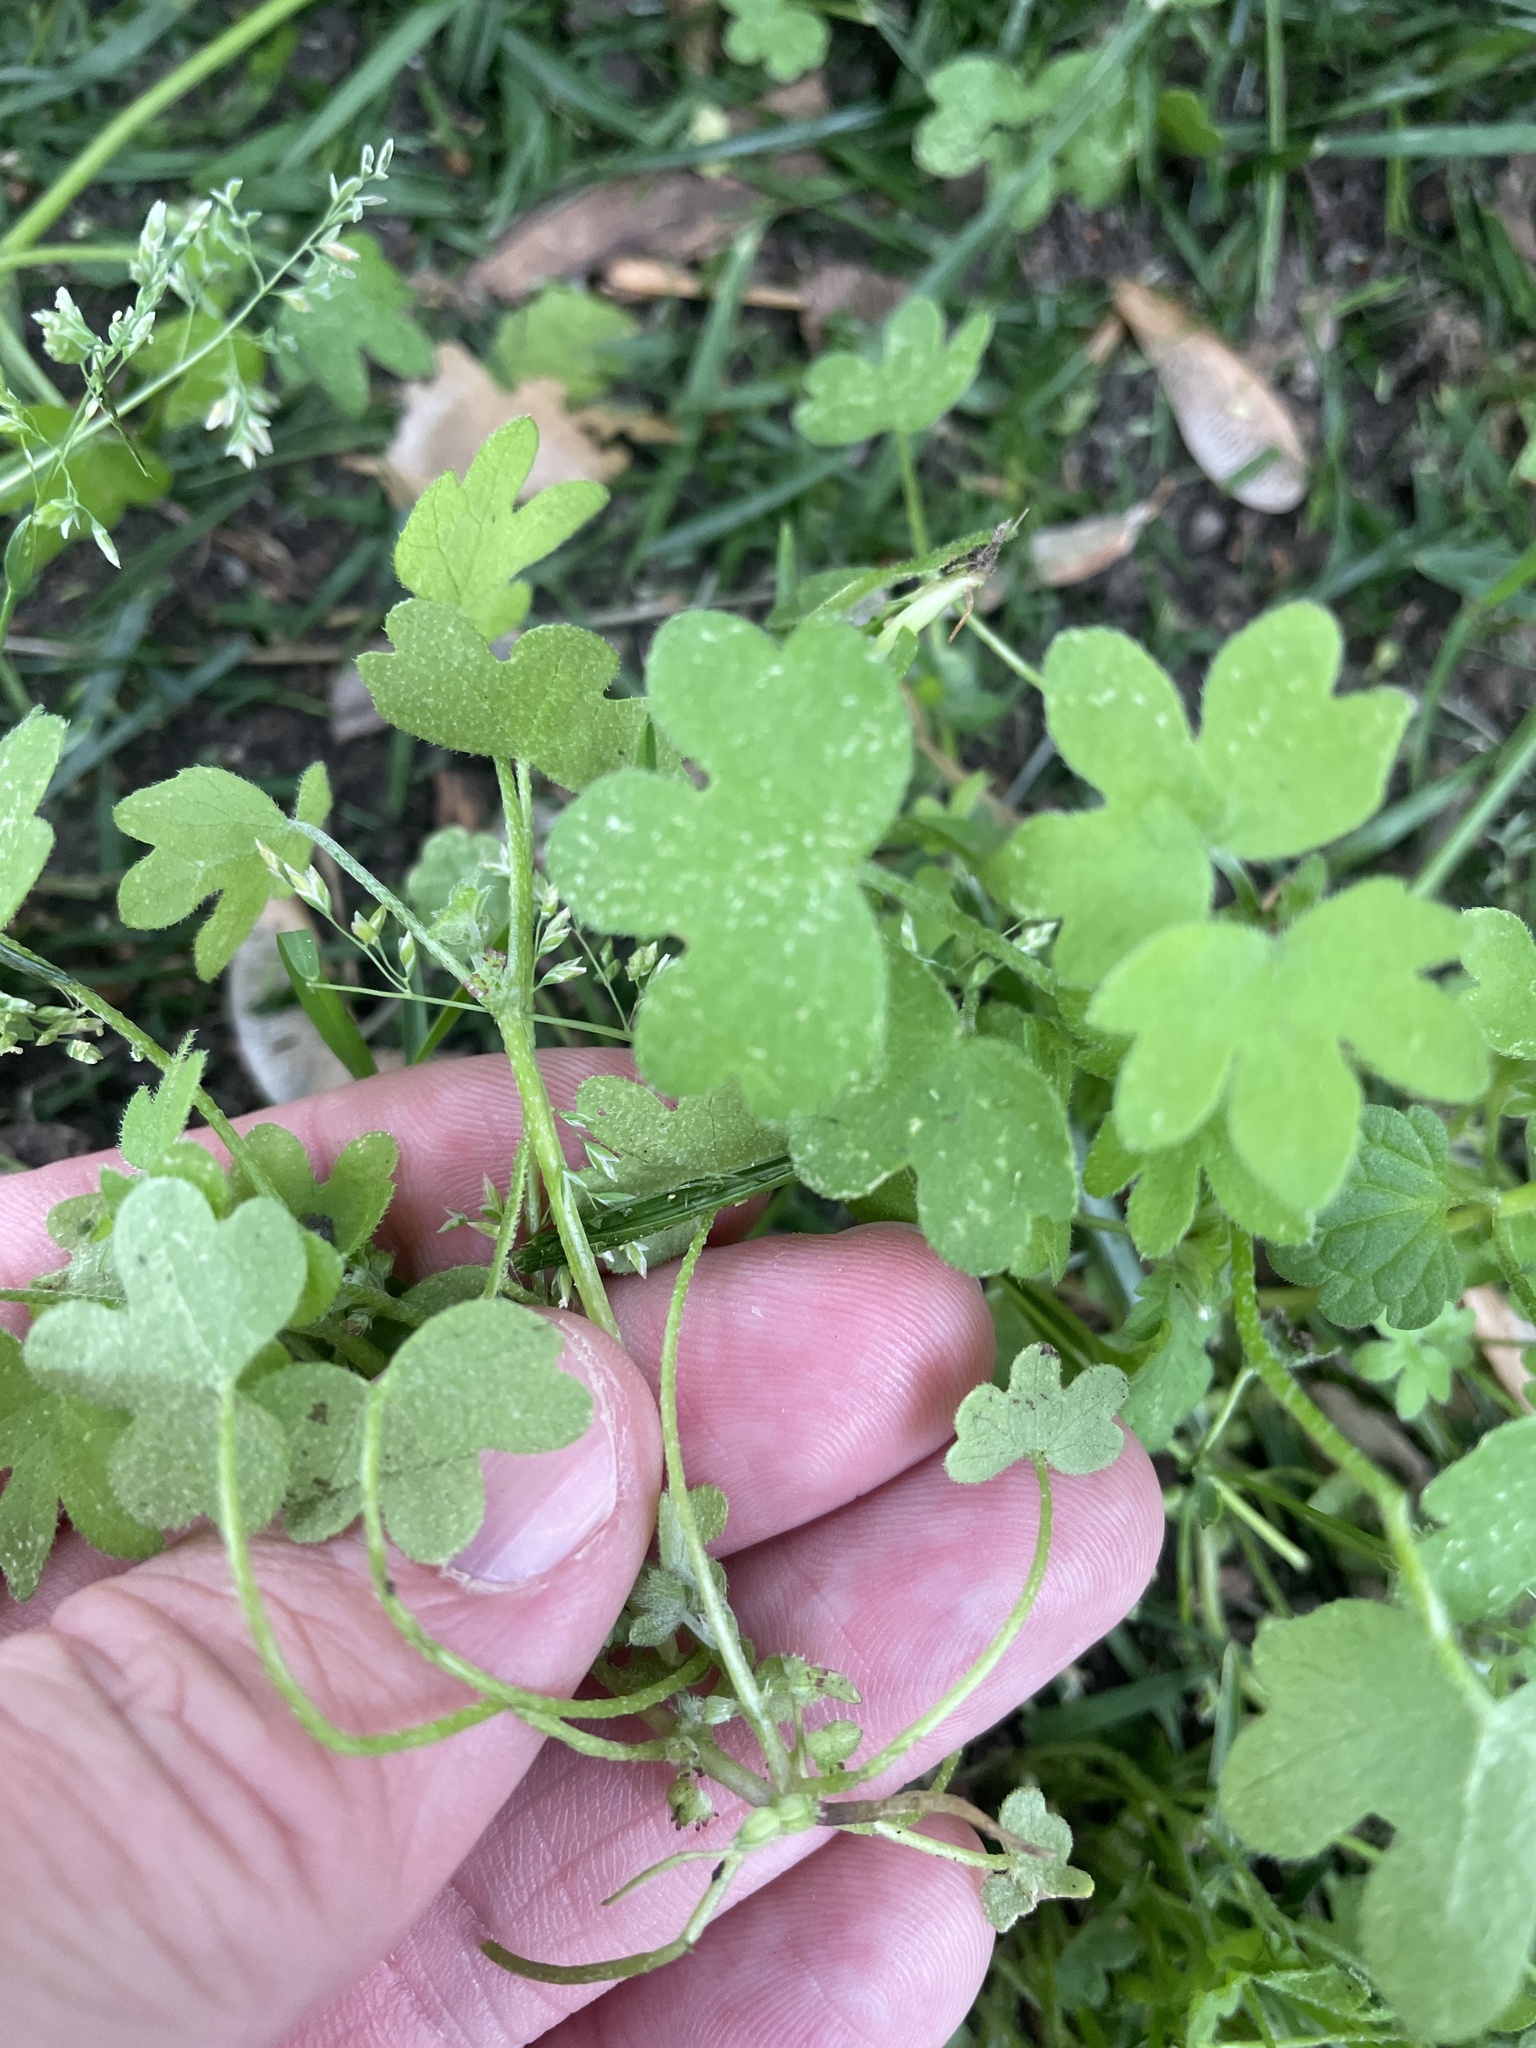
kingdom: Plantae
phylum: Tracheophyta
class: Magnoliopsida
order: Apiales
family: Apiaceae
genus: Bowlesia
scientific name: Bowlesia incana
